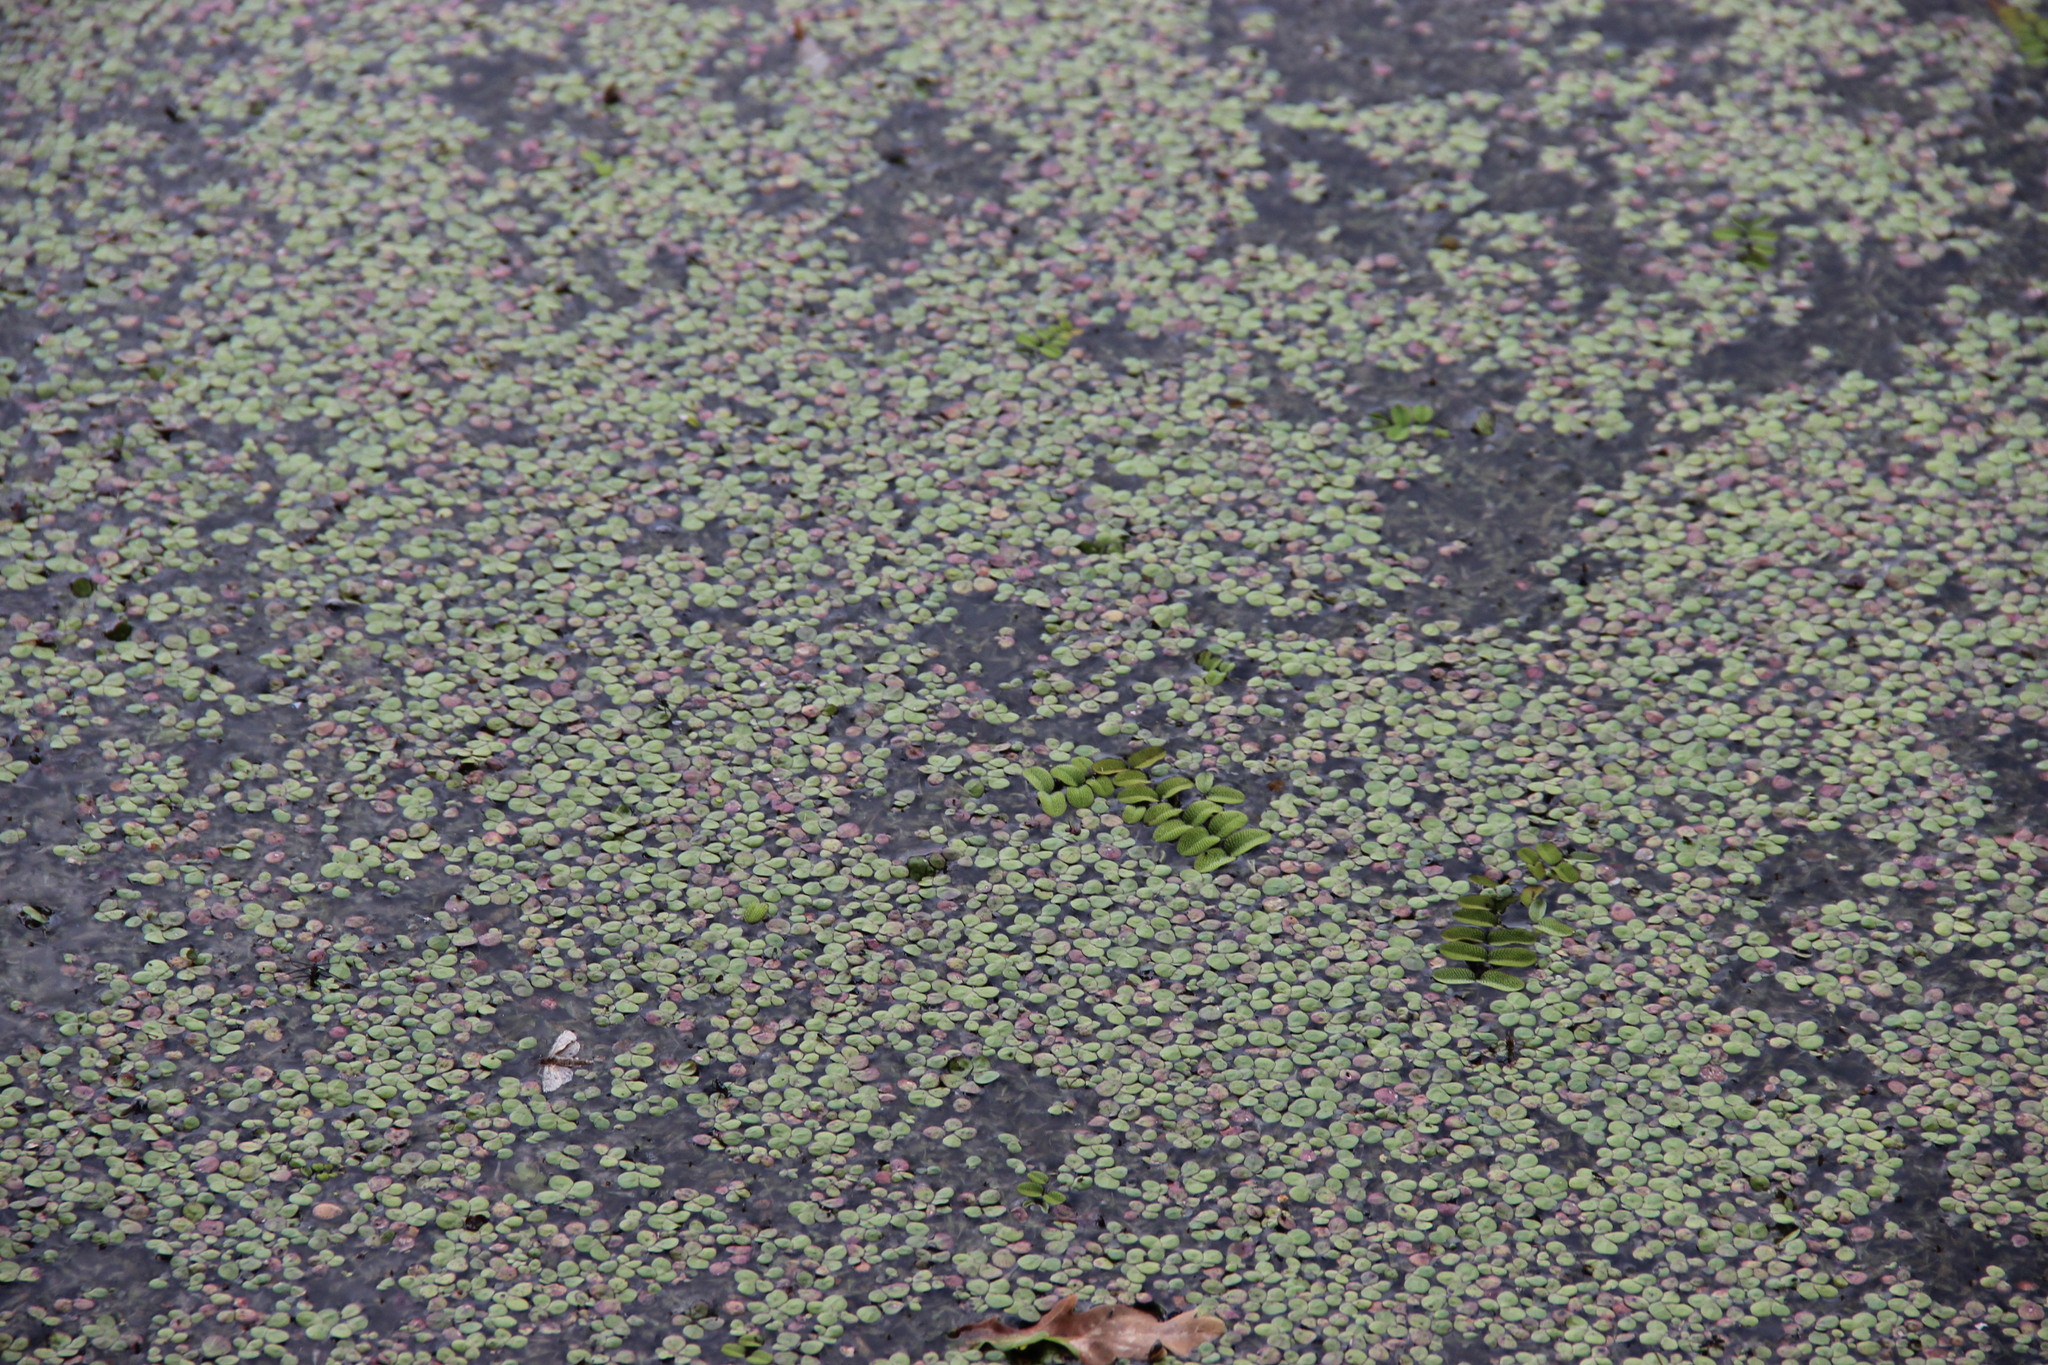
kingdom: Plantae
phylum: Tracheophyta
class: Polypodiopsida
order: Salviniales
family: Salviniaceae
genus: Salvinia
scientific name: Salvinia natans
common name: Floating fern
